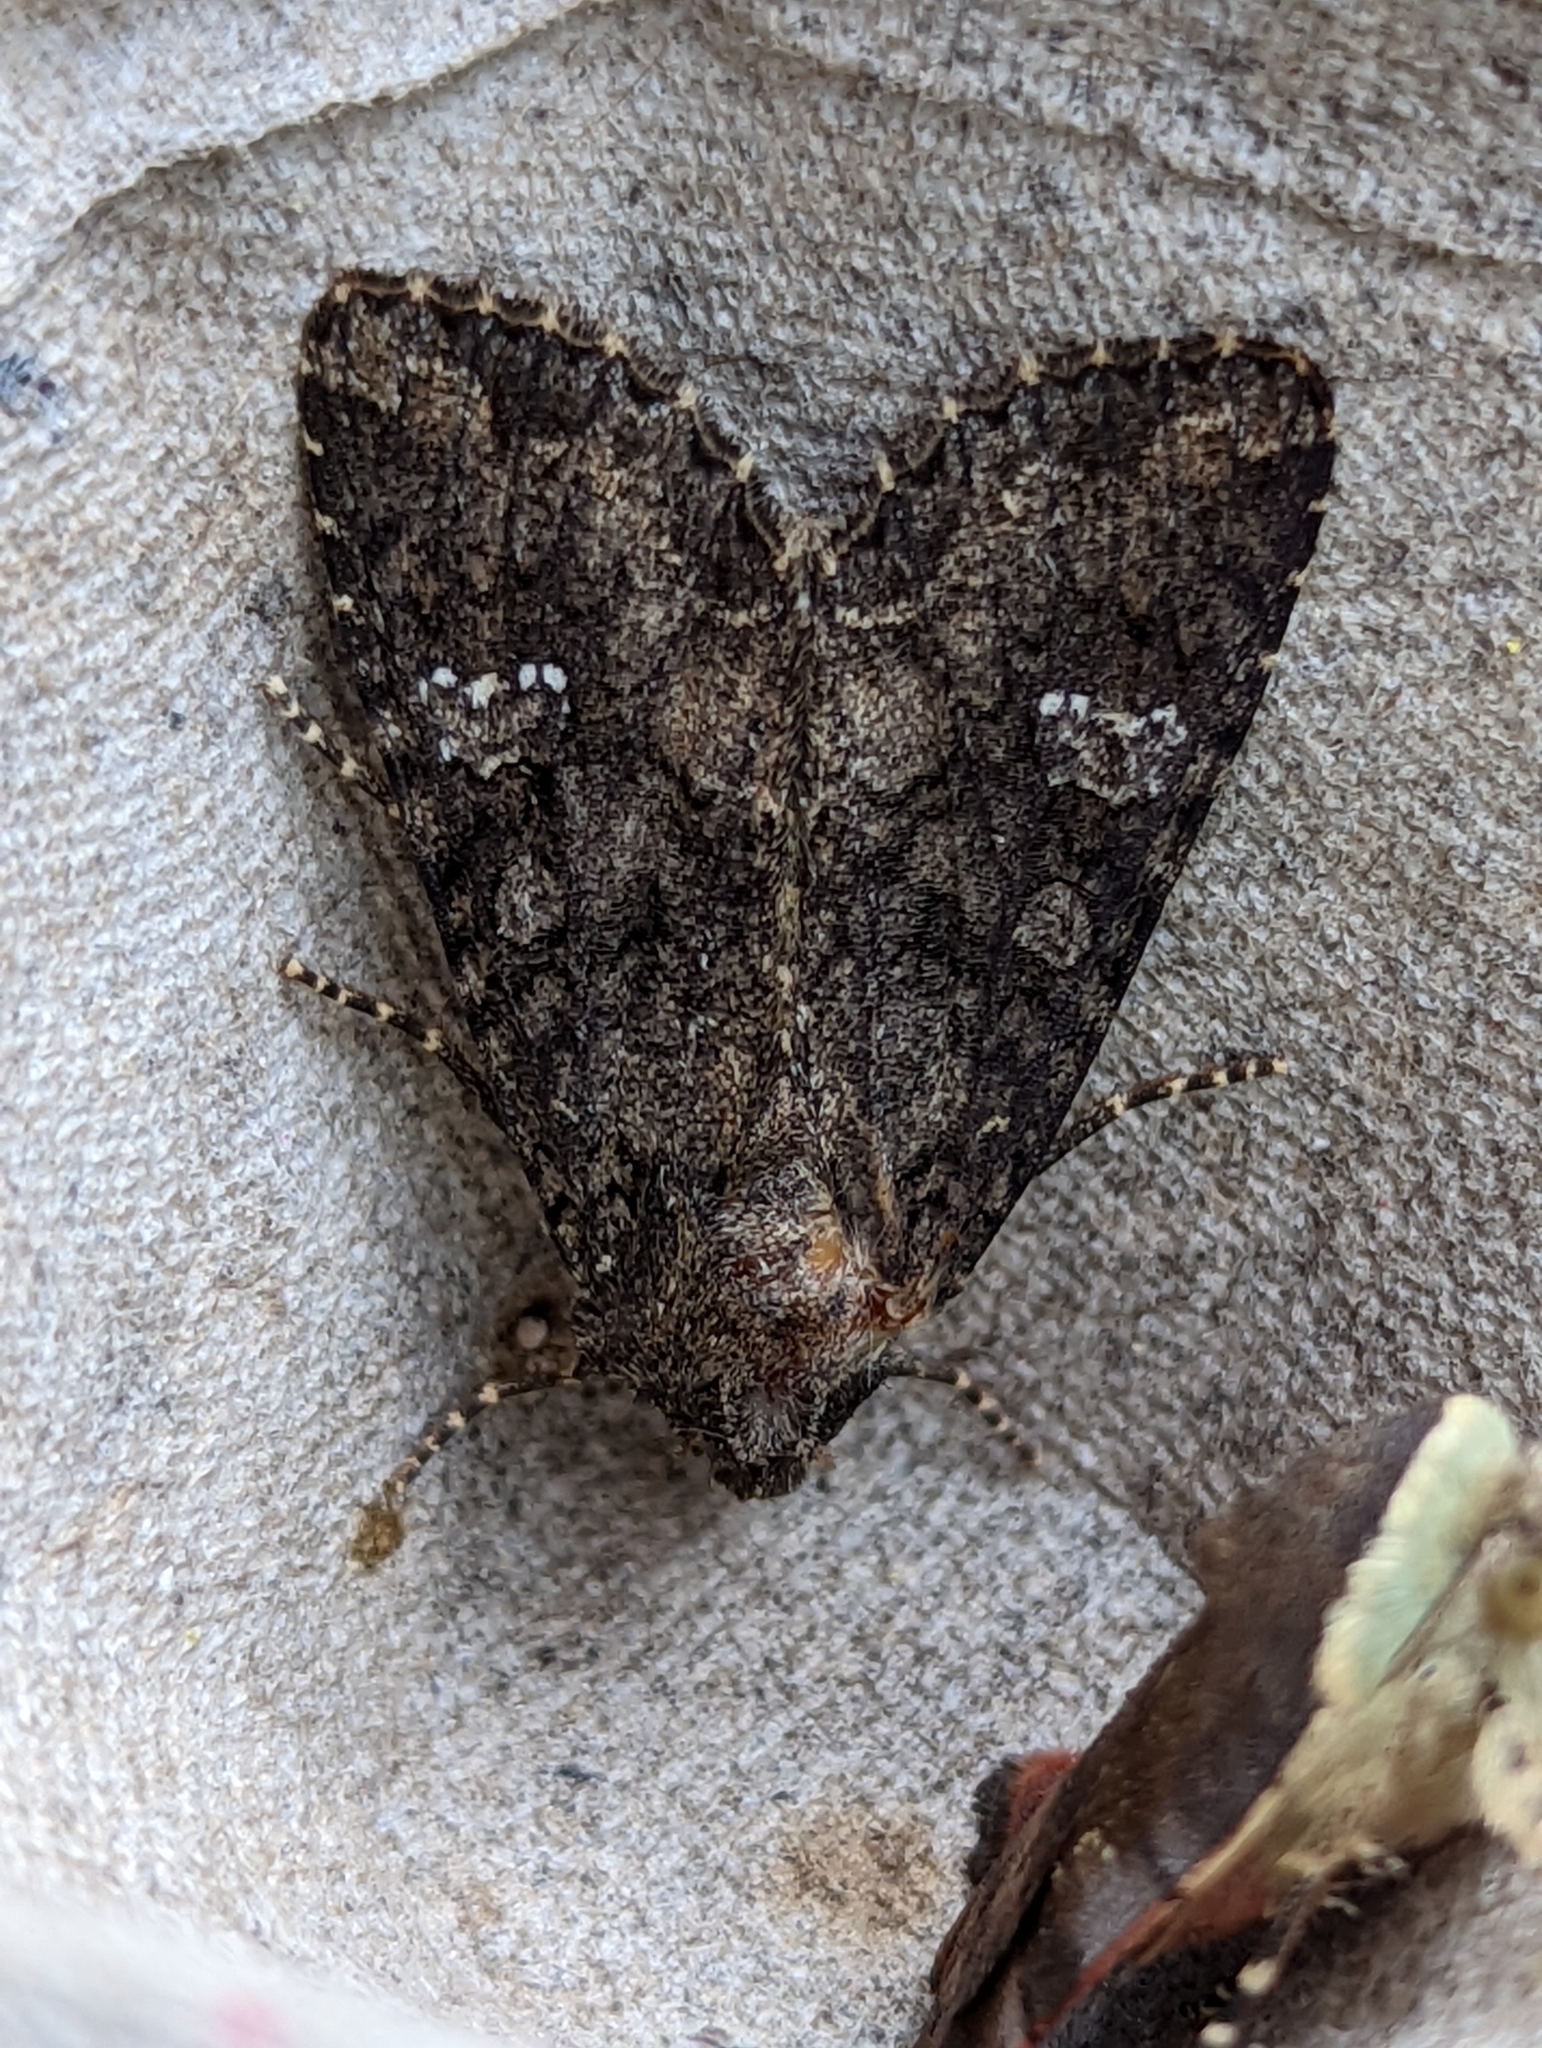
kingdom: Animalia
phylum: Arthropoda
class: Insecta
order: Lepidoptera
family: Noctuidae
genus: Mamestra
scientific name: Mamestra brassicae
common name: Cabbage moth
